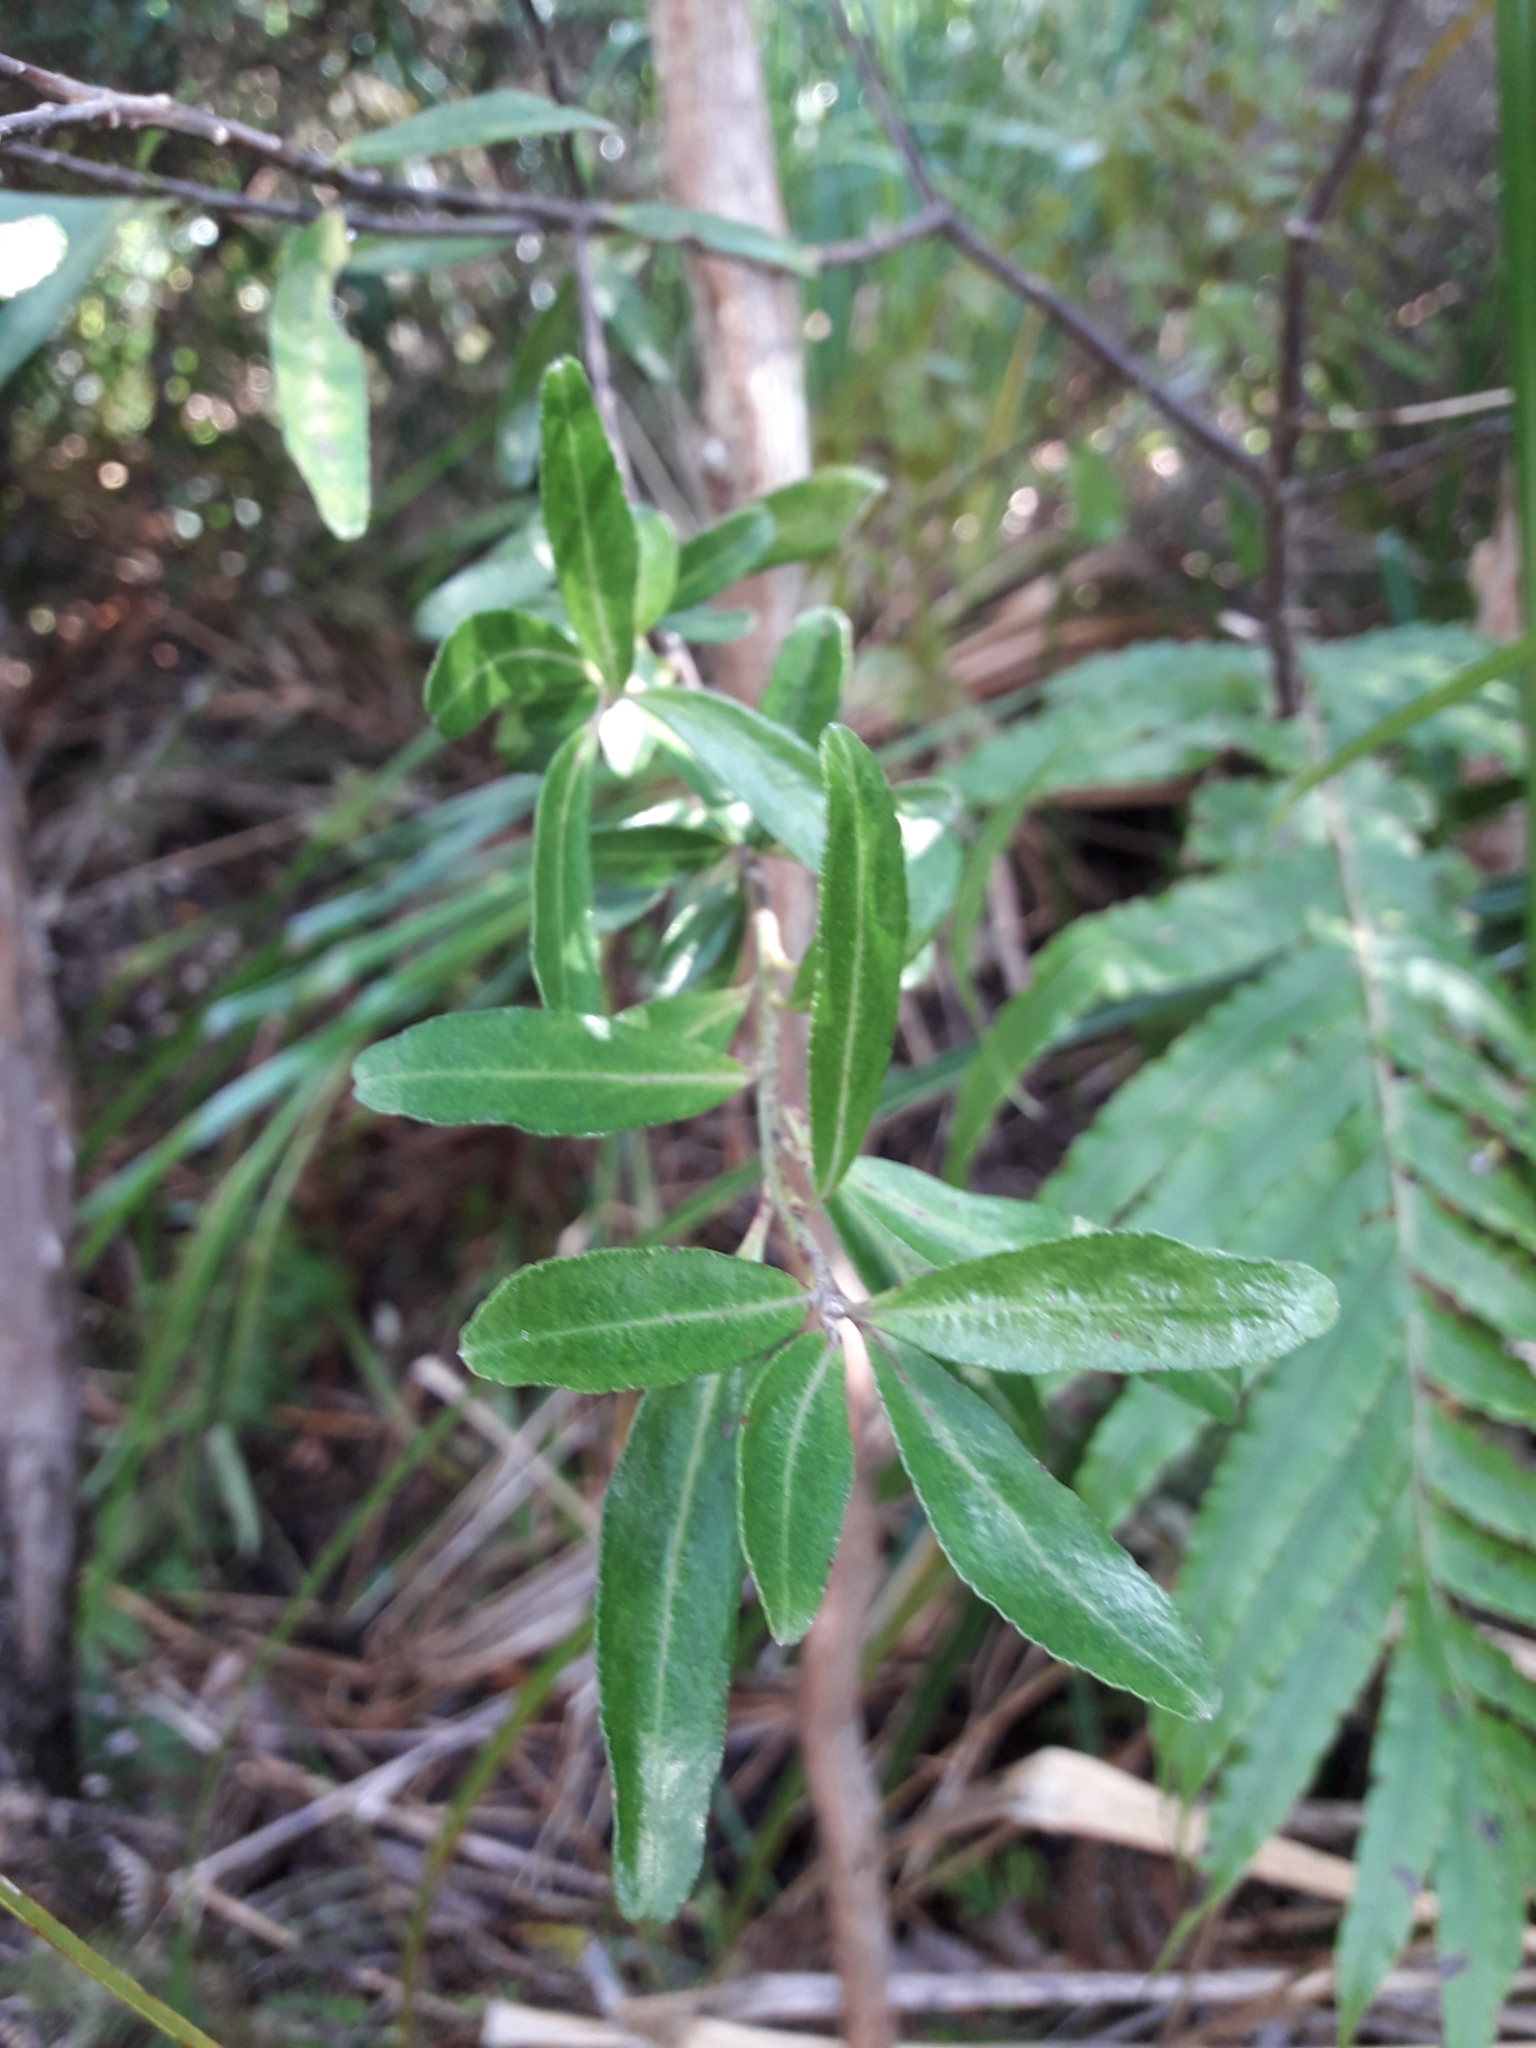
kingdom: Plantae
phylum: Tracheophyta
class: Magnoliopsida
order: Sapindales
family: Rutaceae
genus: Leionema
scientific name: Leionema nudum
